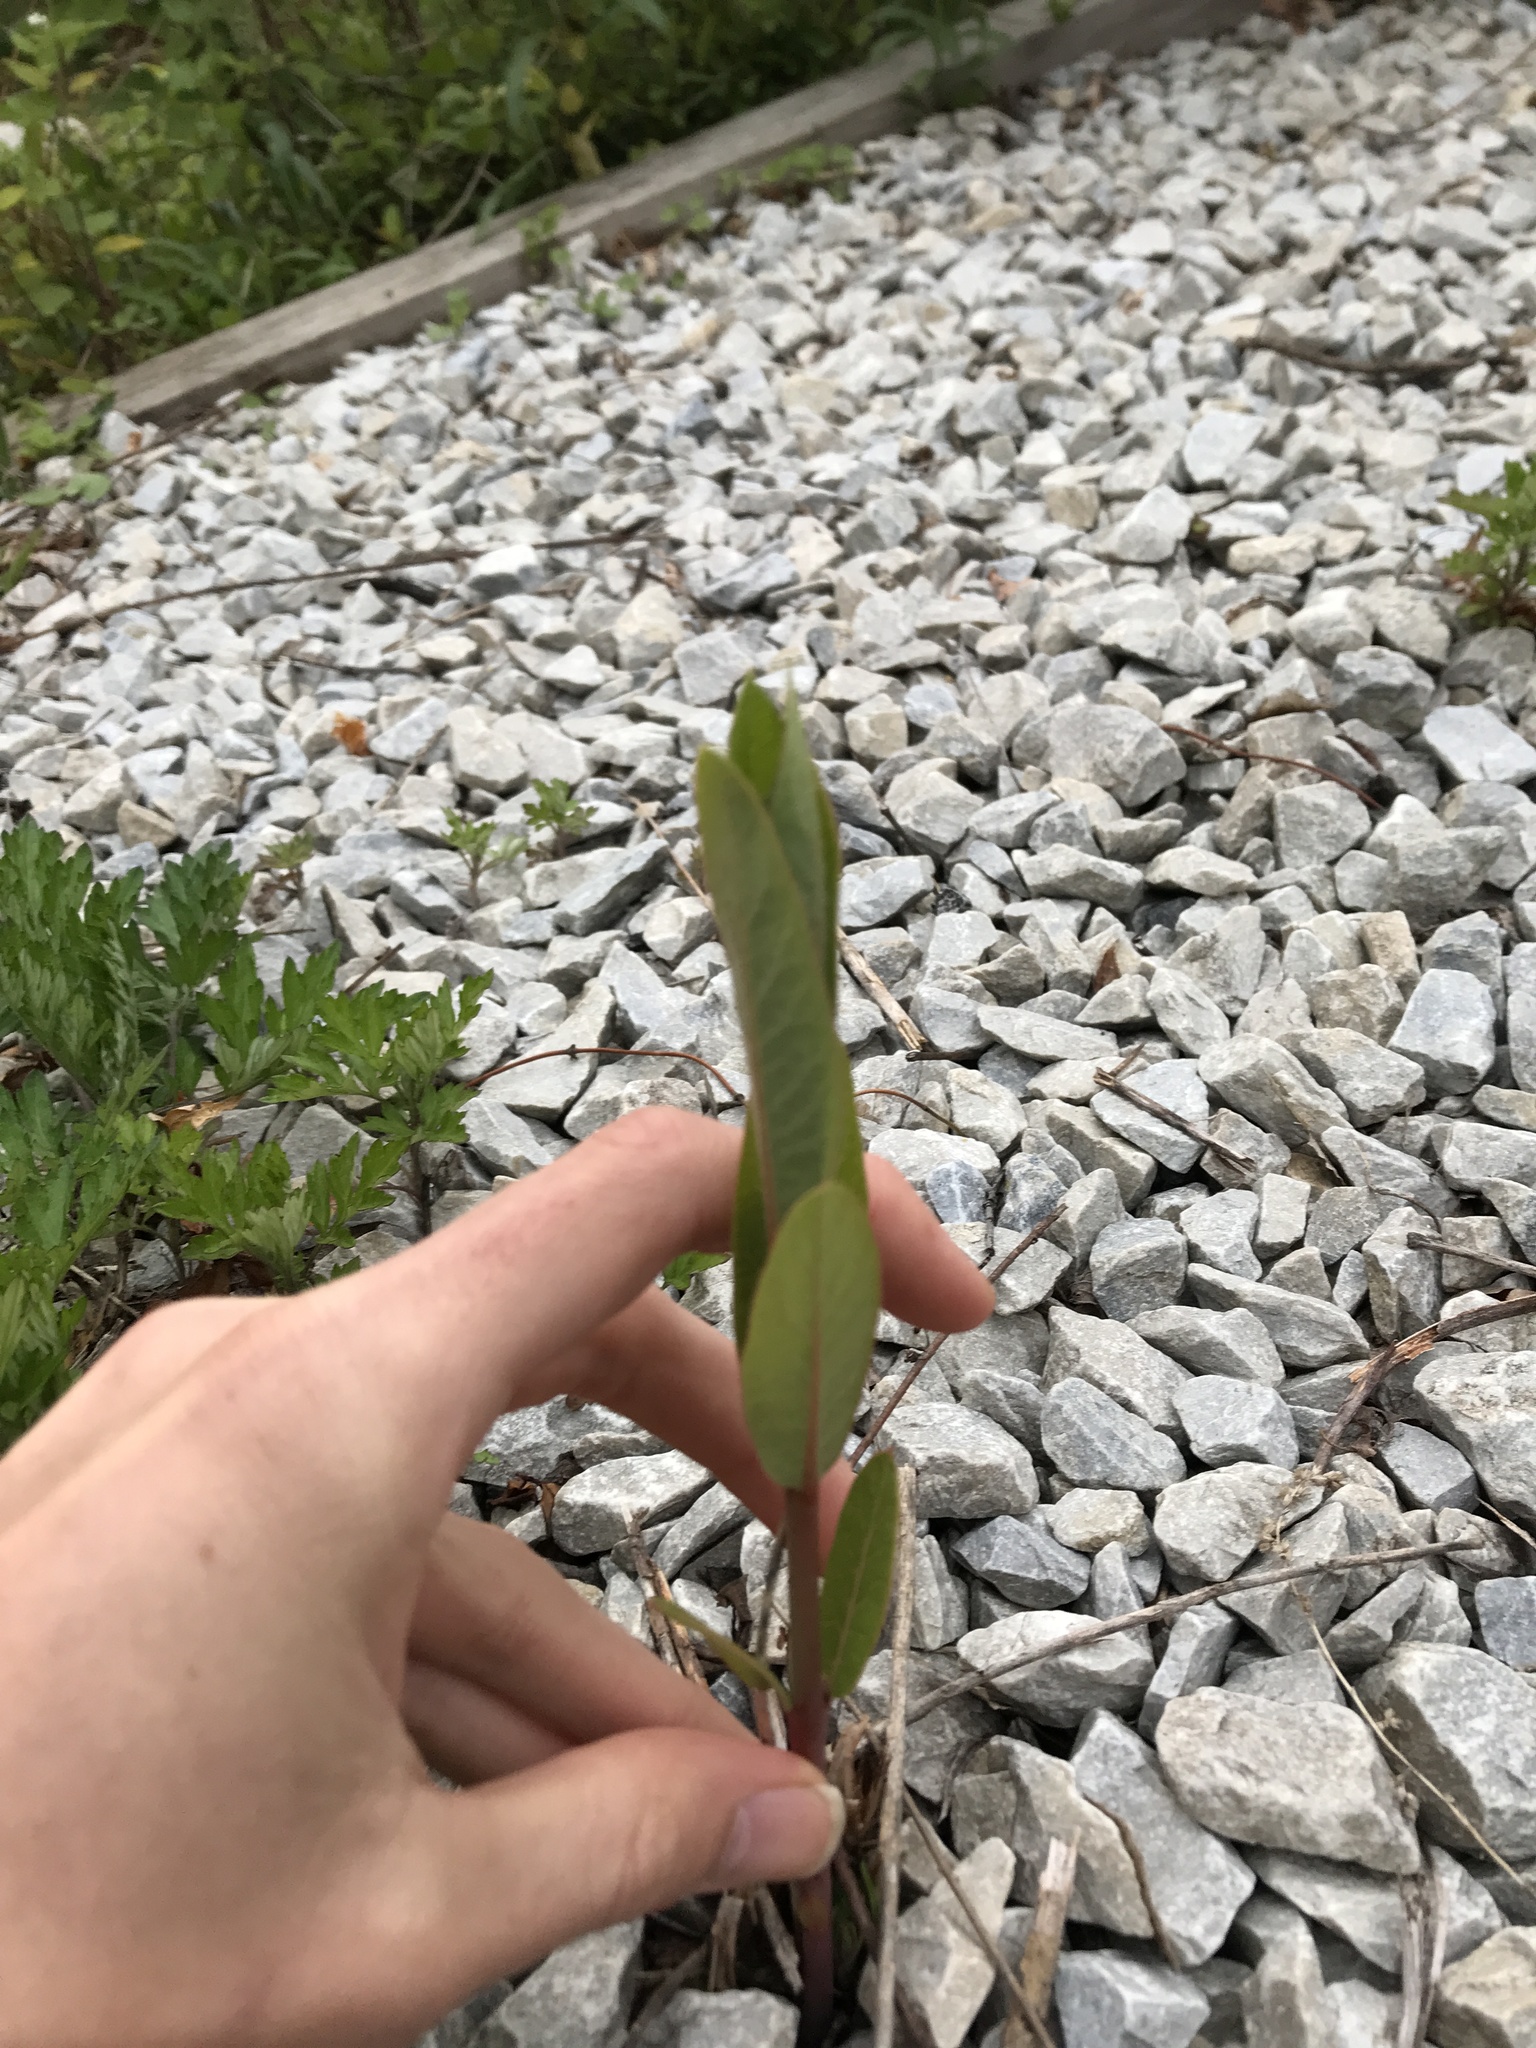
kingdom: Plantae
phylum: Tracheophyta
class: Magnoliopsida
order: Gentianales
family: Apocynaceae
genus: Asclepias
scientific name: Asclepias syriaca
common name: Common milkweed
